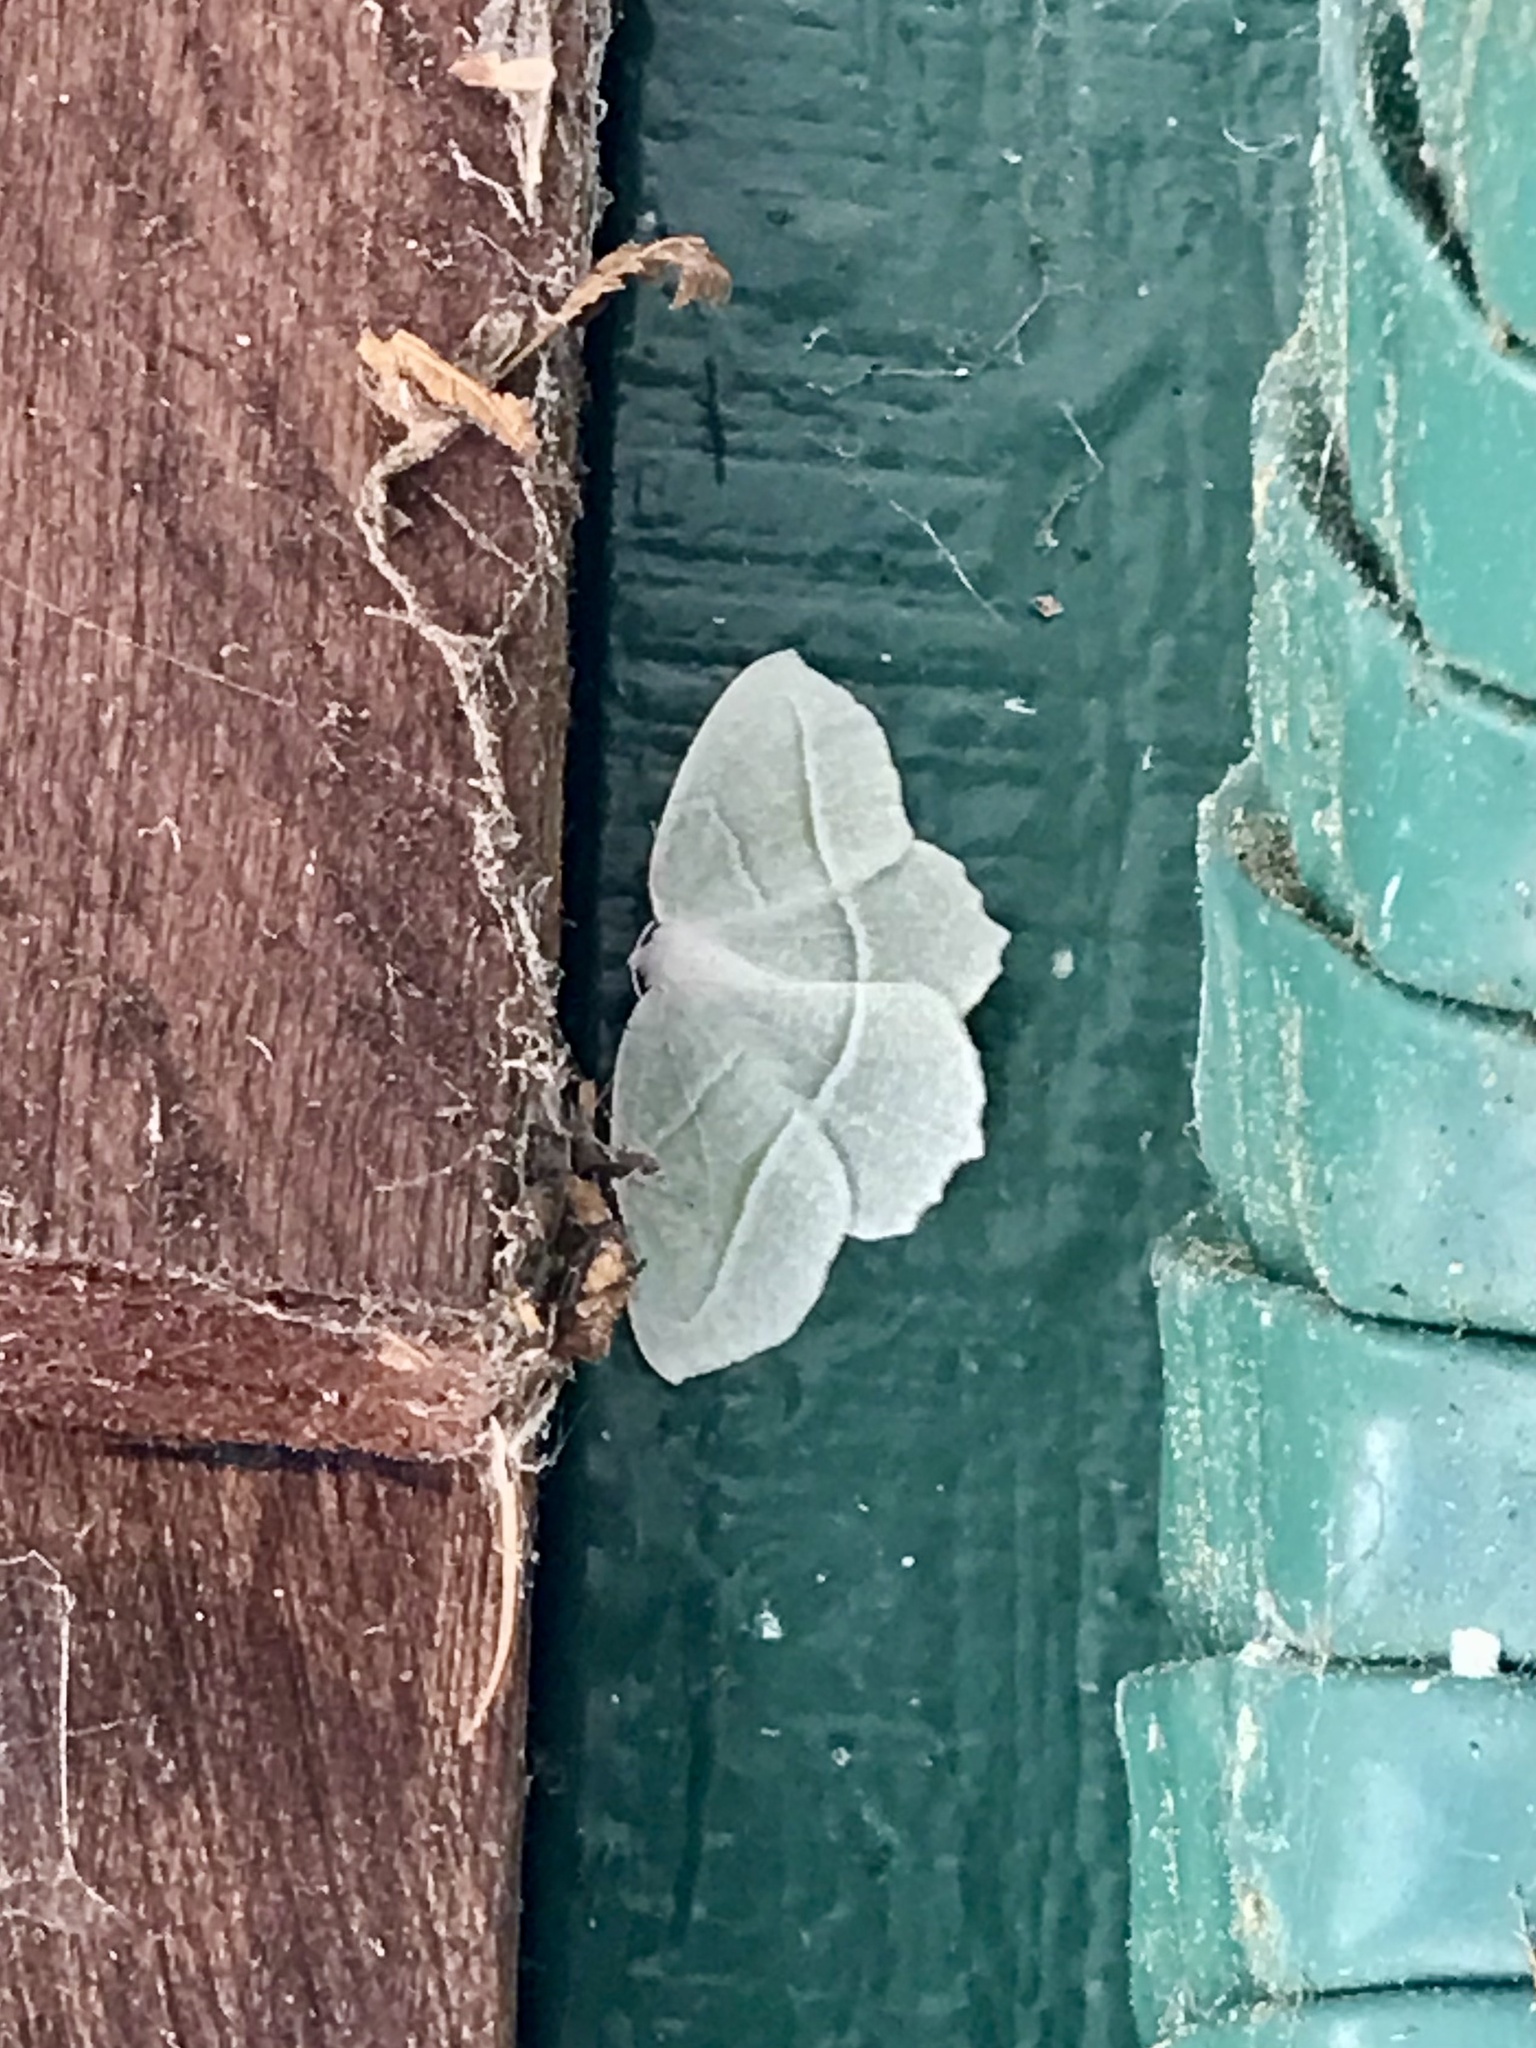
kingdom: Animalia
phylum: Arthropoda
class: Insecta
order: Lepidoptera
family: Geometridae
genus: Campaea
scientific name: Campaea perlata
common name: Fringed looper
